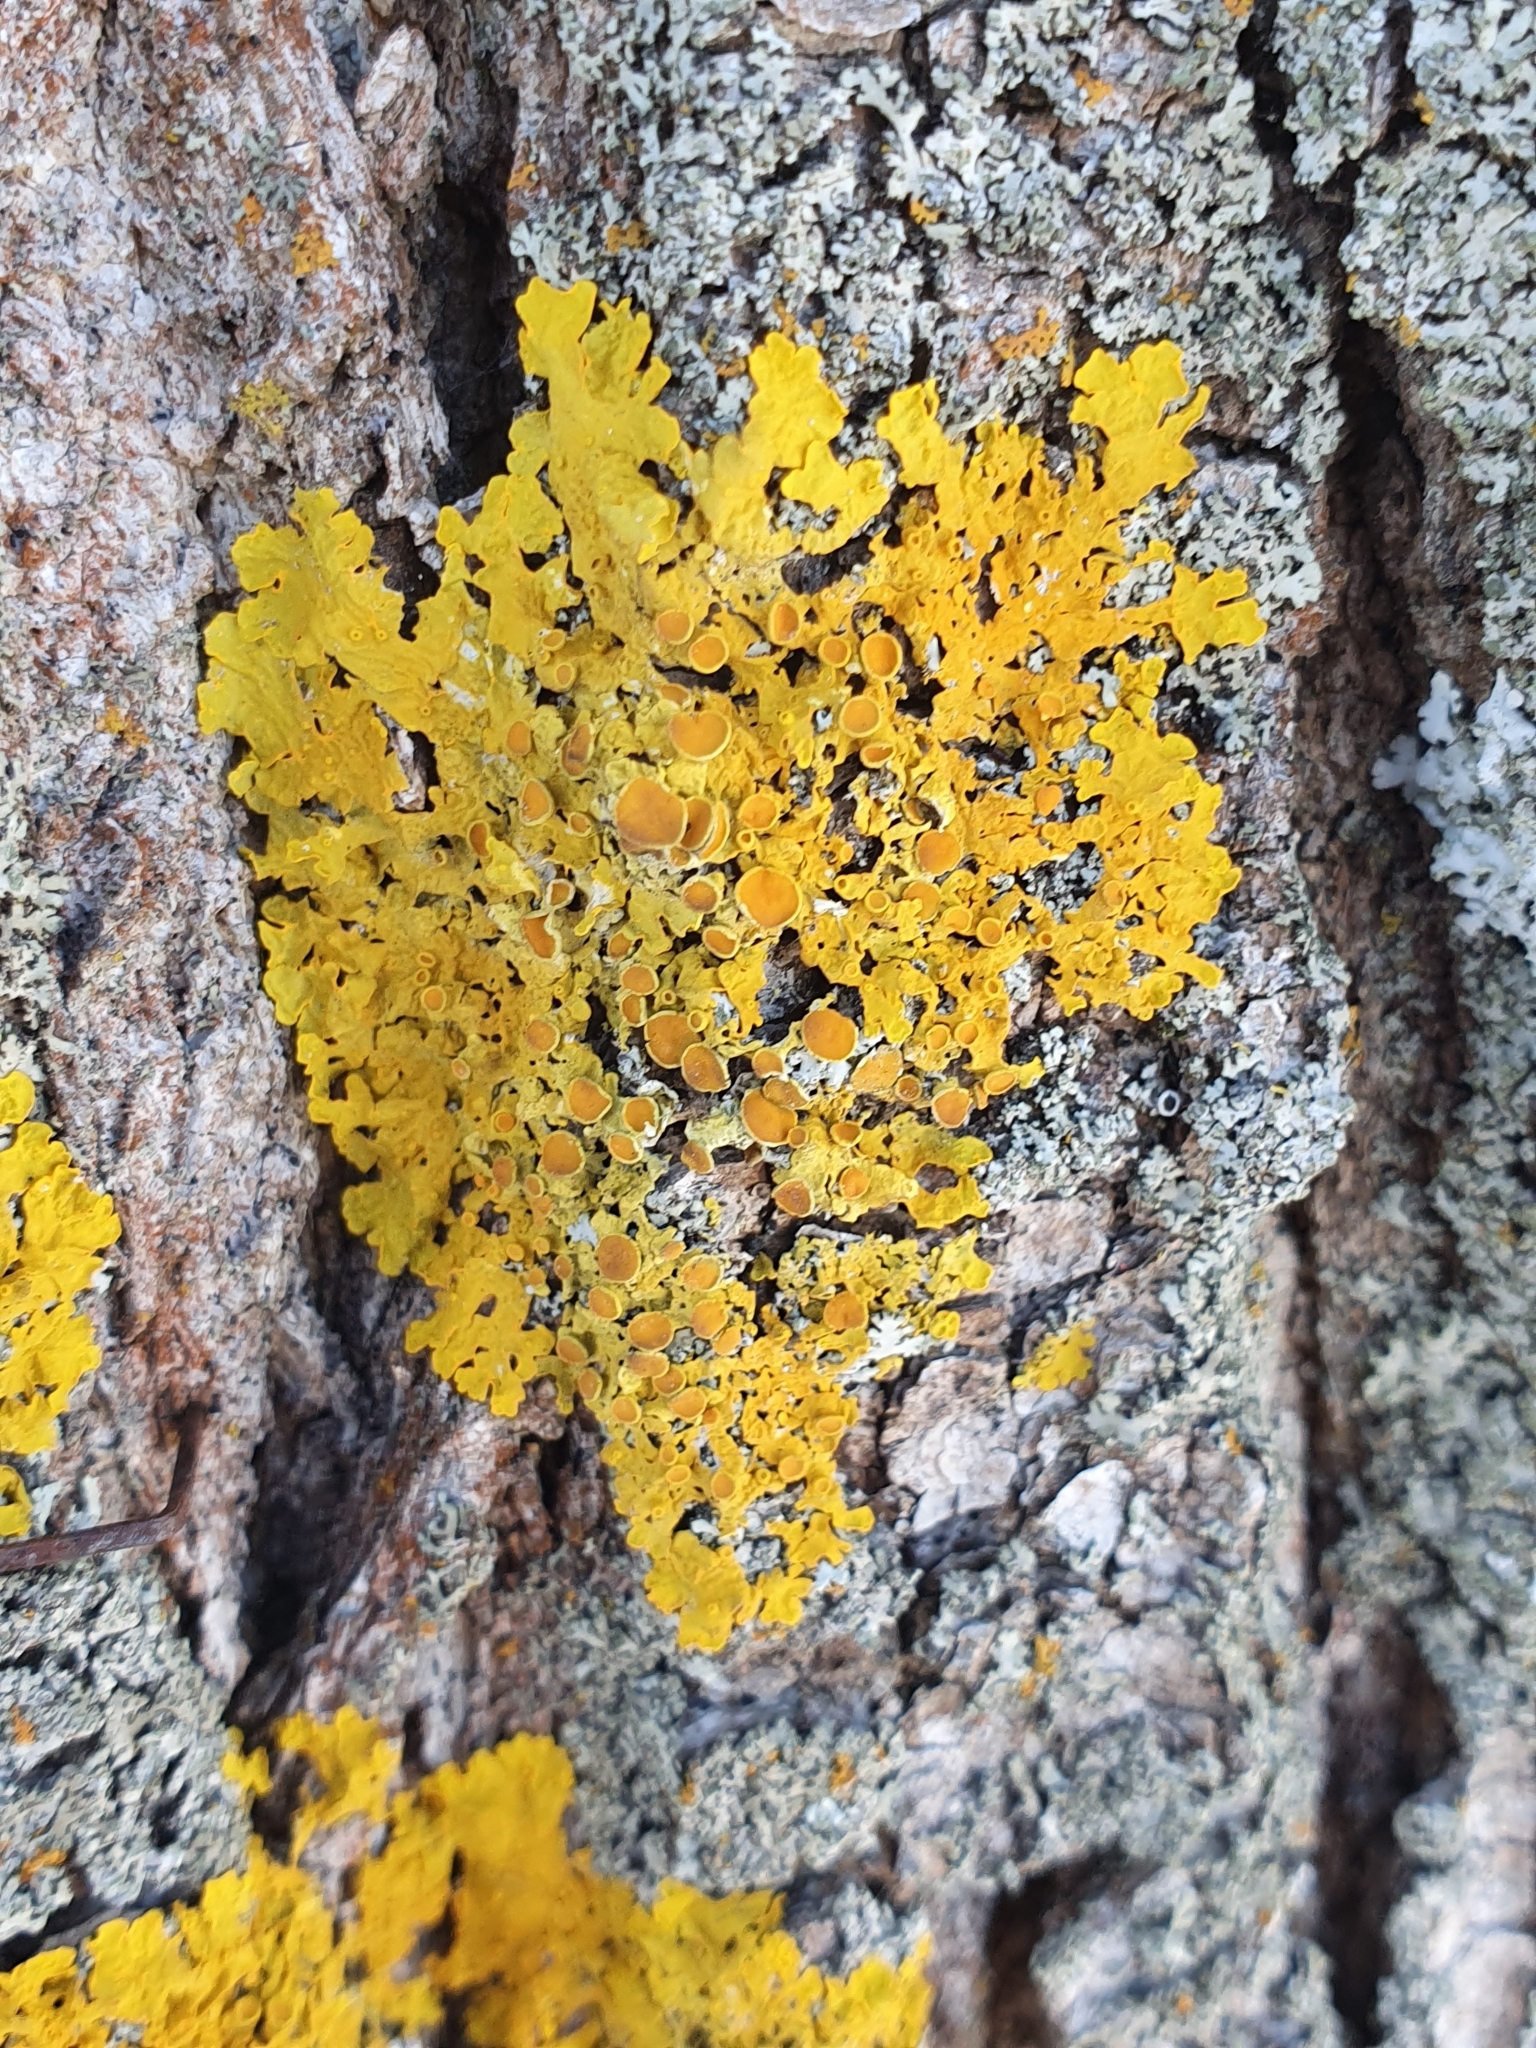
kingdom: Fungi
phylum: Ascomycota
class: Lecanoromycetes
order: Teloschistales
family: Teloschistaceae
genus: Xanthoria
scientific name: Xanthoria parietina
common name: Common orange lichen
